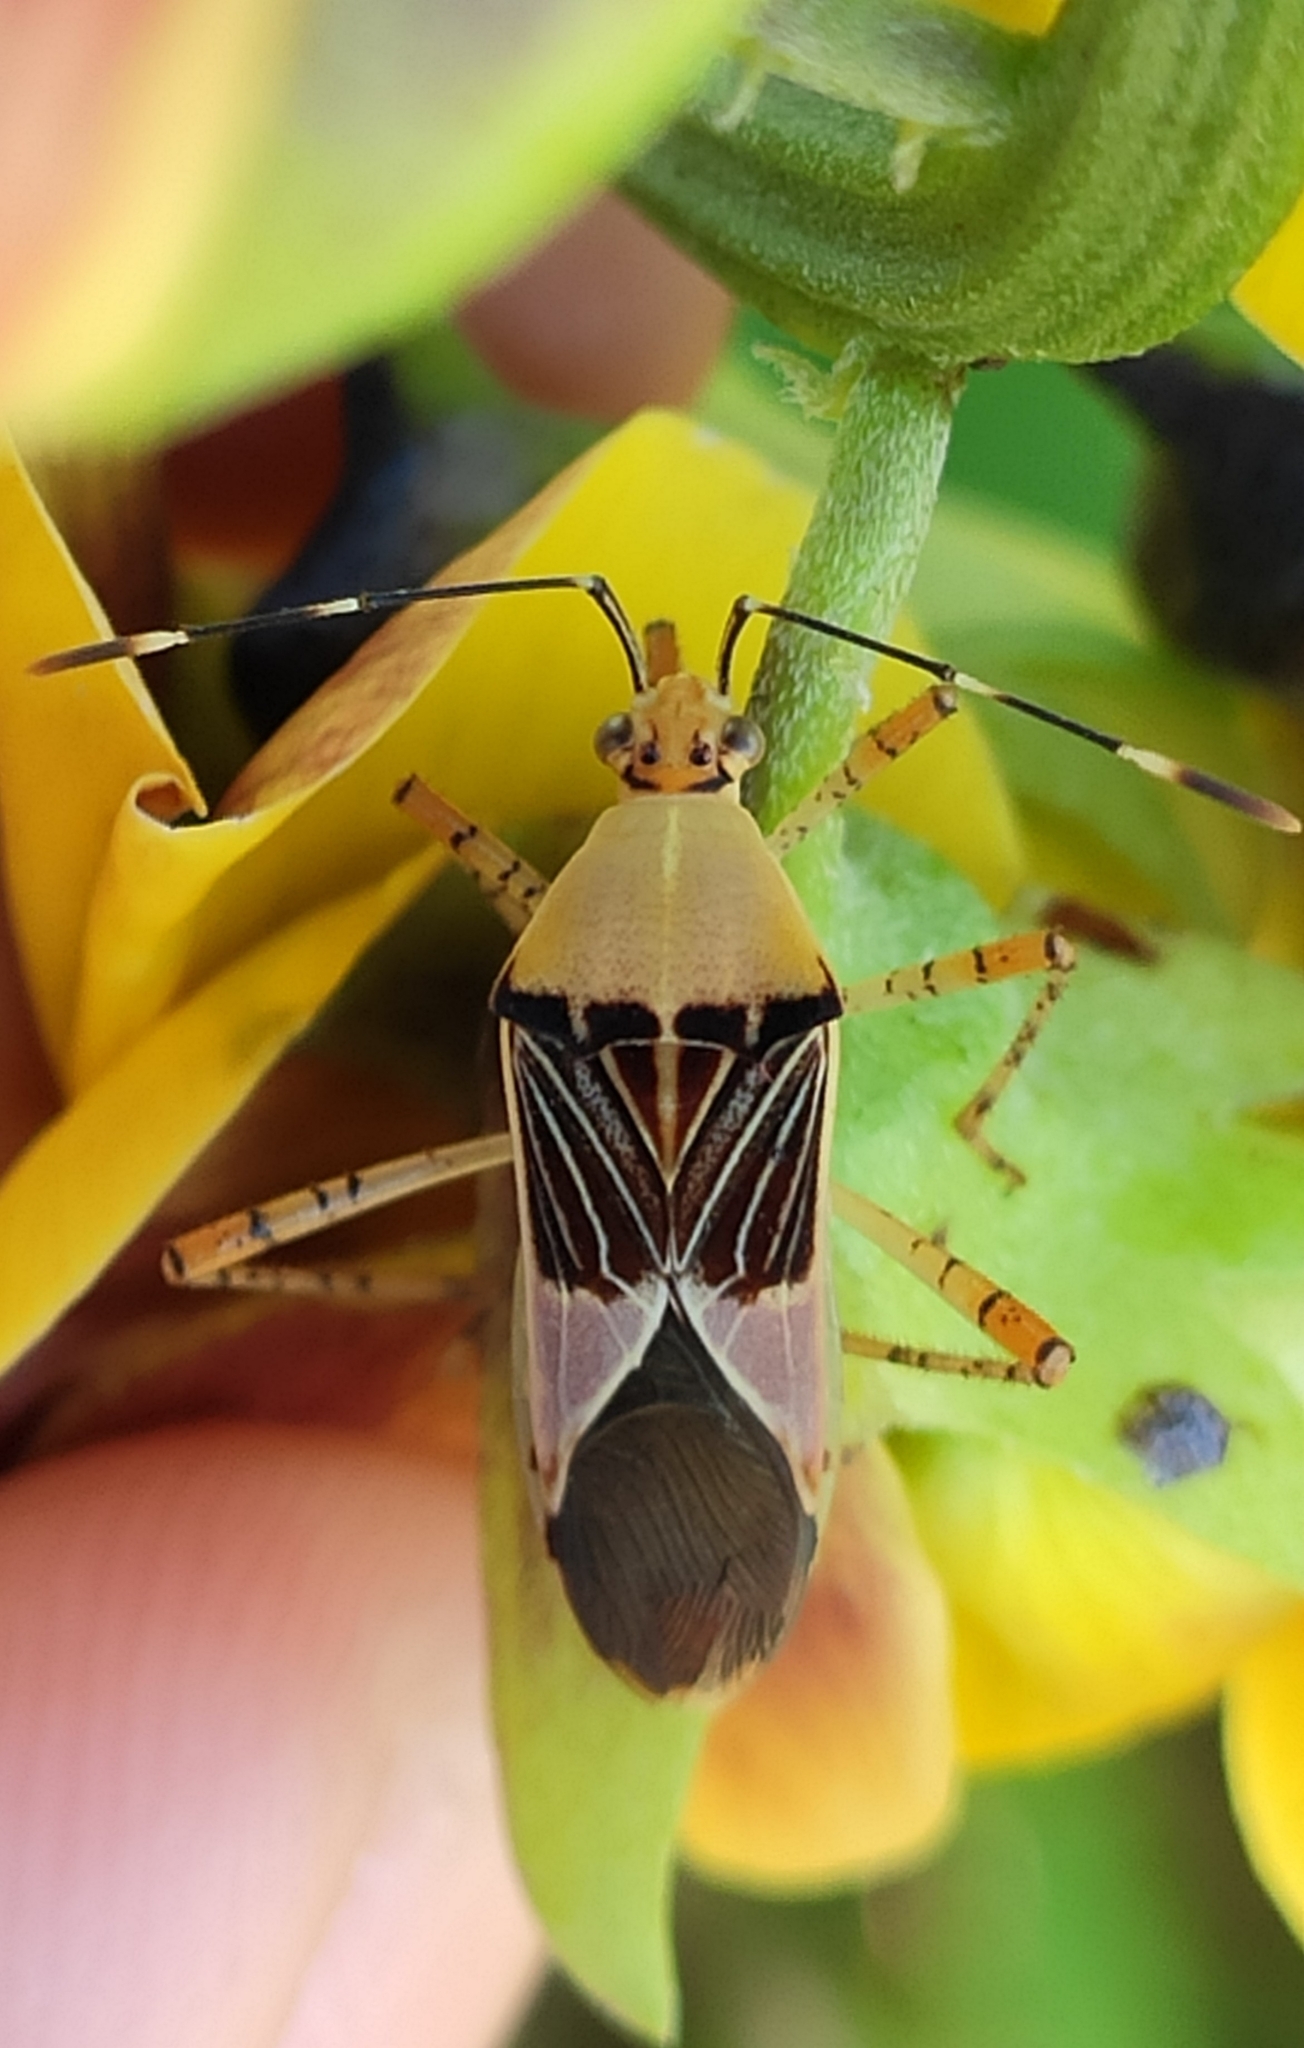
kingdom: Animalia
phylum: Arthropoda
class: Insecta
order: Hemiptera
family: Coreidae
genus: Hypselonotus
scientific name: Hypselonotus fulvus
